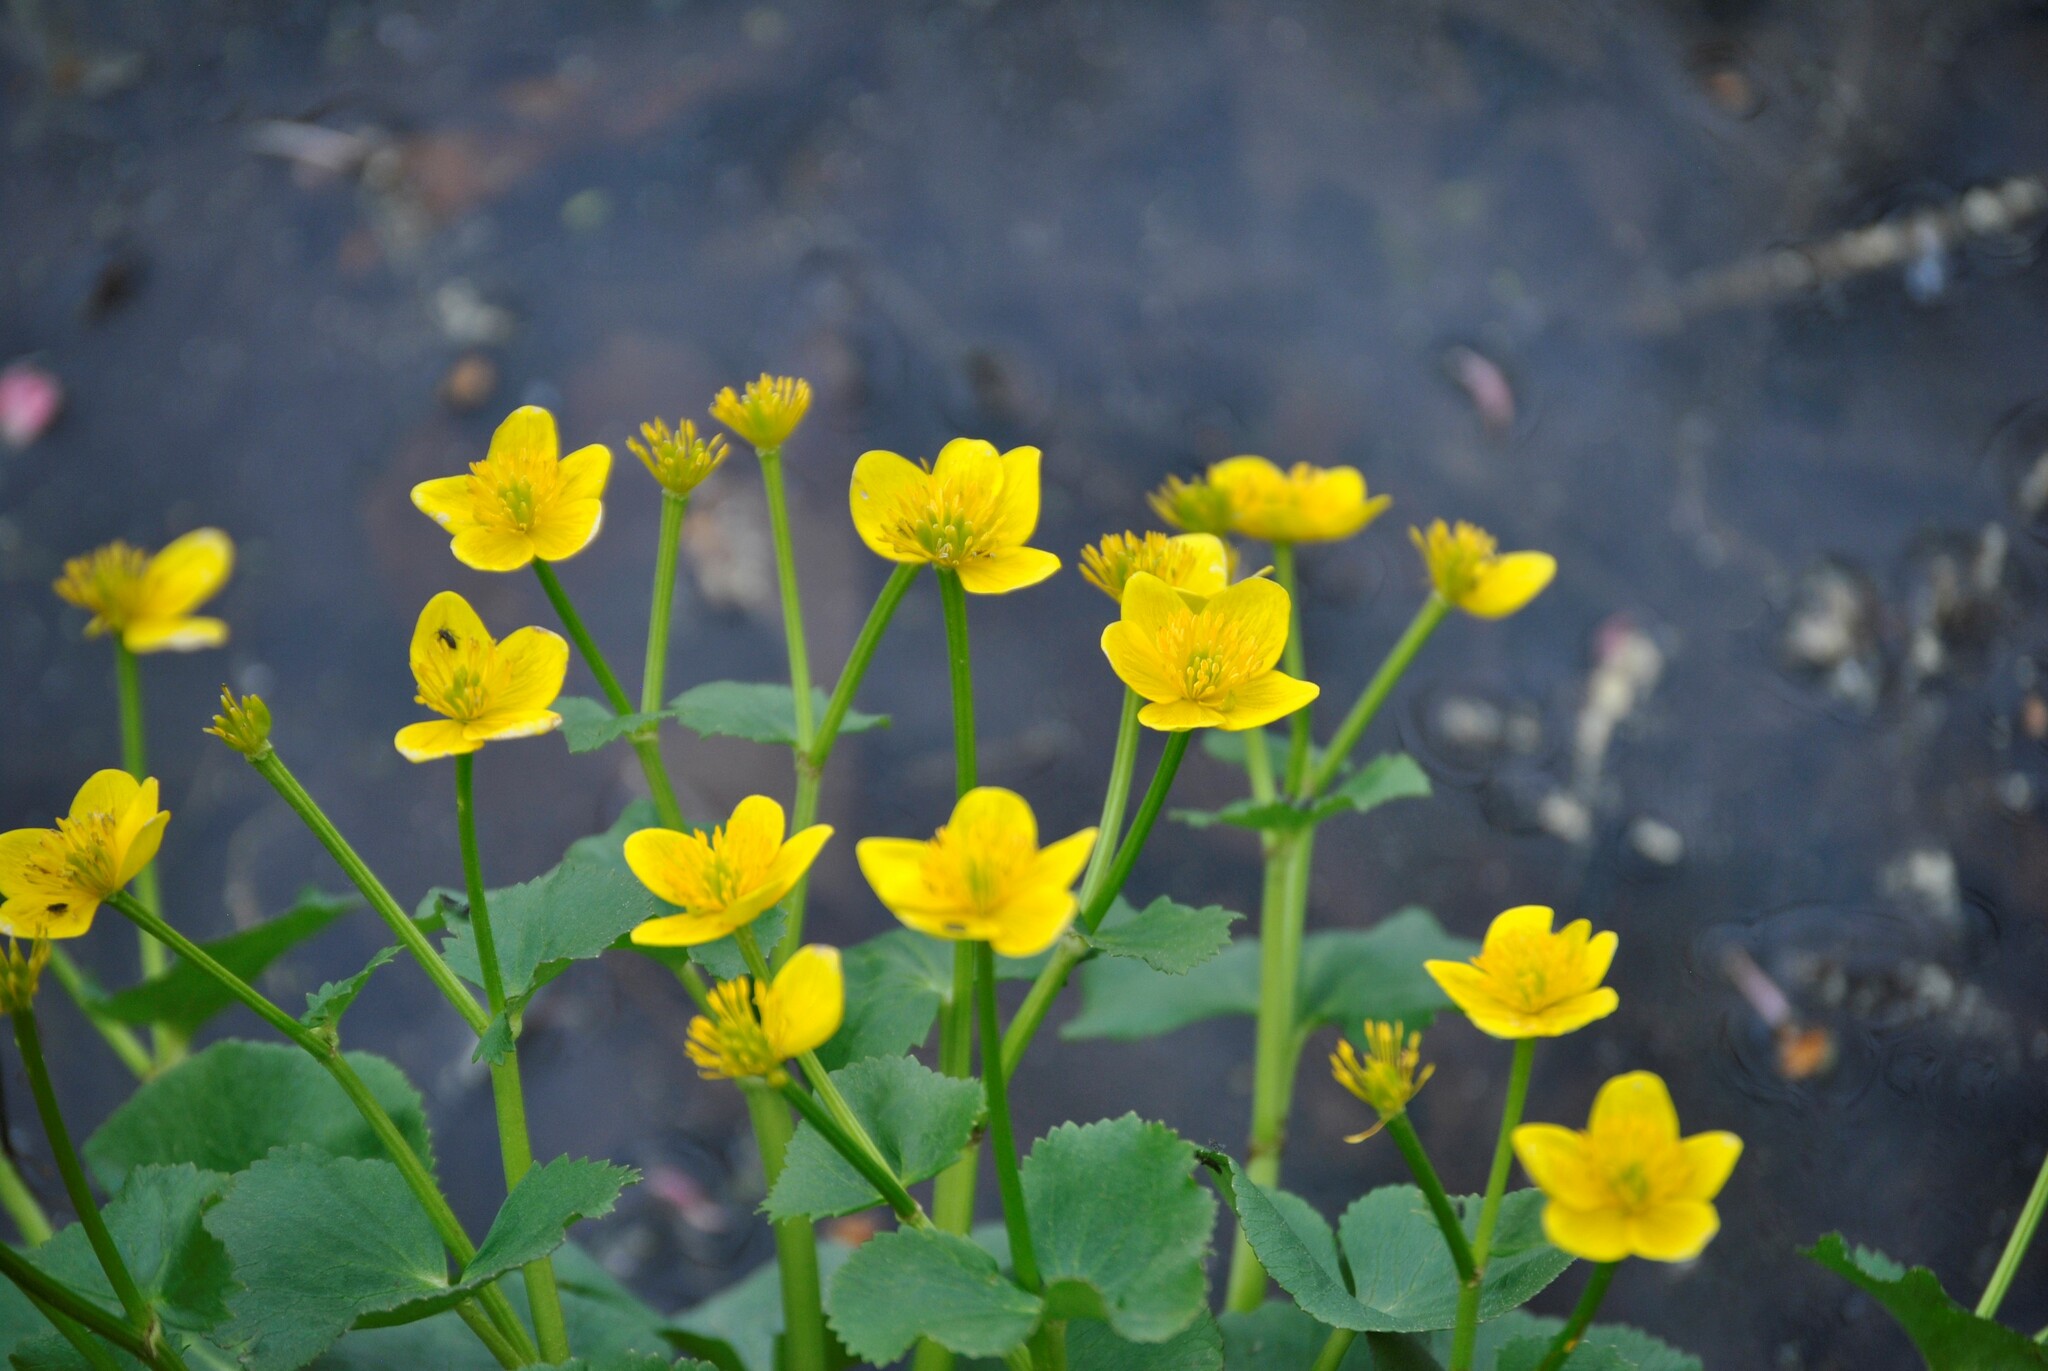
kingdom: Plantae
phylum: Tracheophyta
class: Magnoliopsida
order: Ranunculales
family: Ranunculaceae
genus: Caltha
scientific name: Caltha palustris
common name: Marsh marigold
